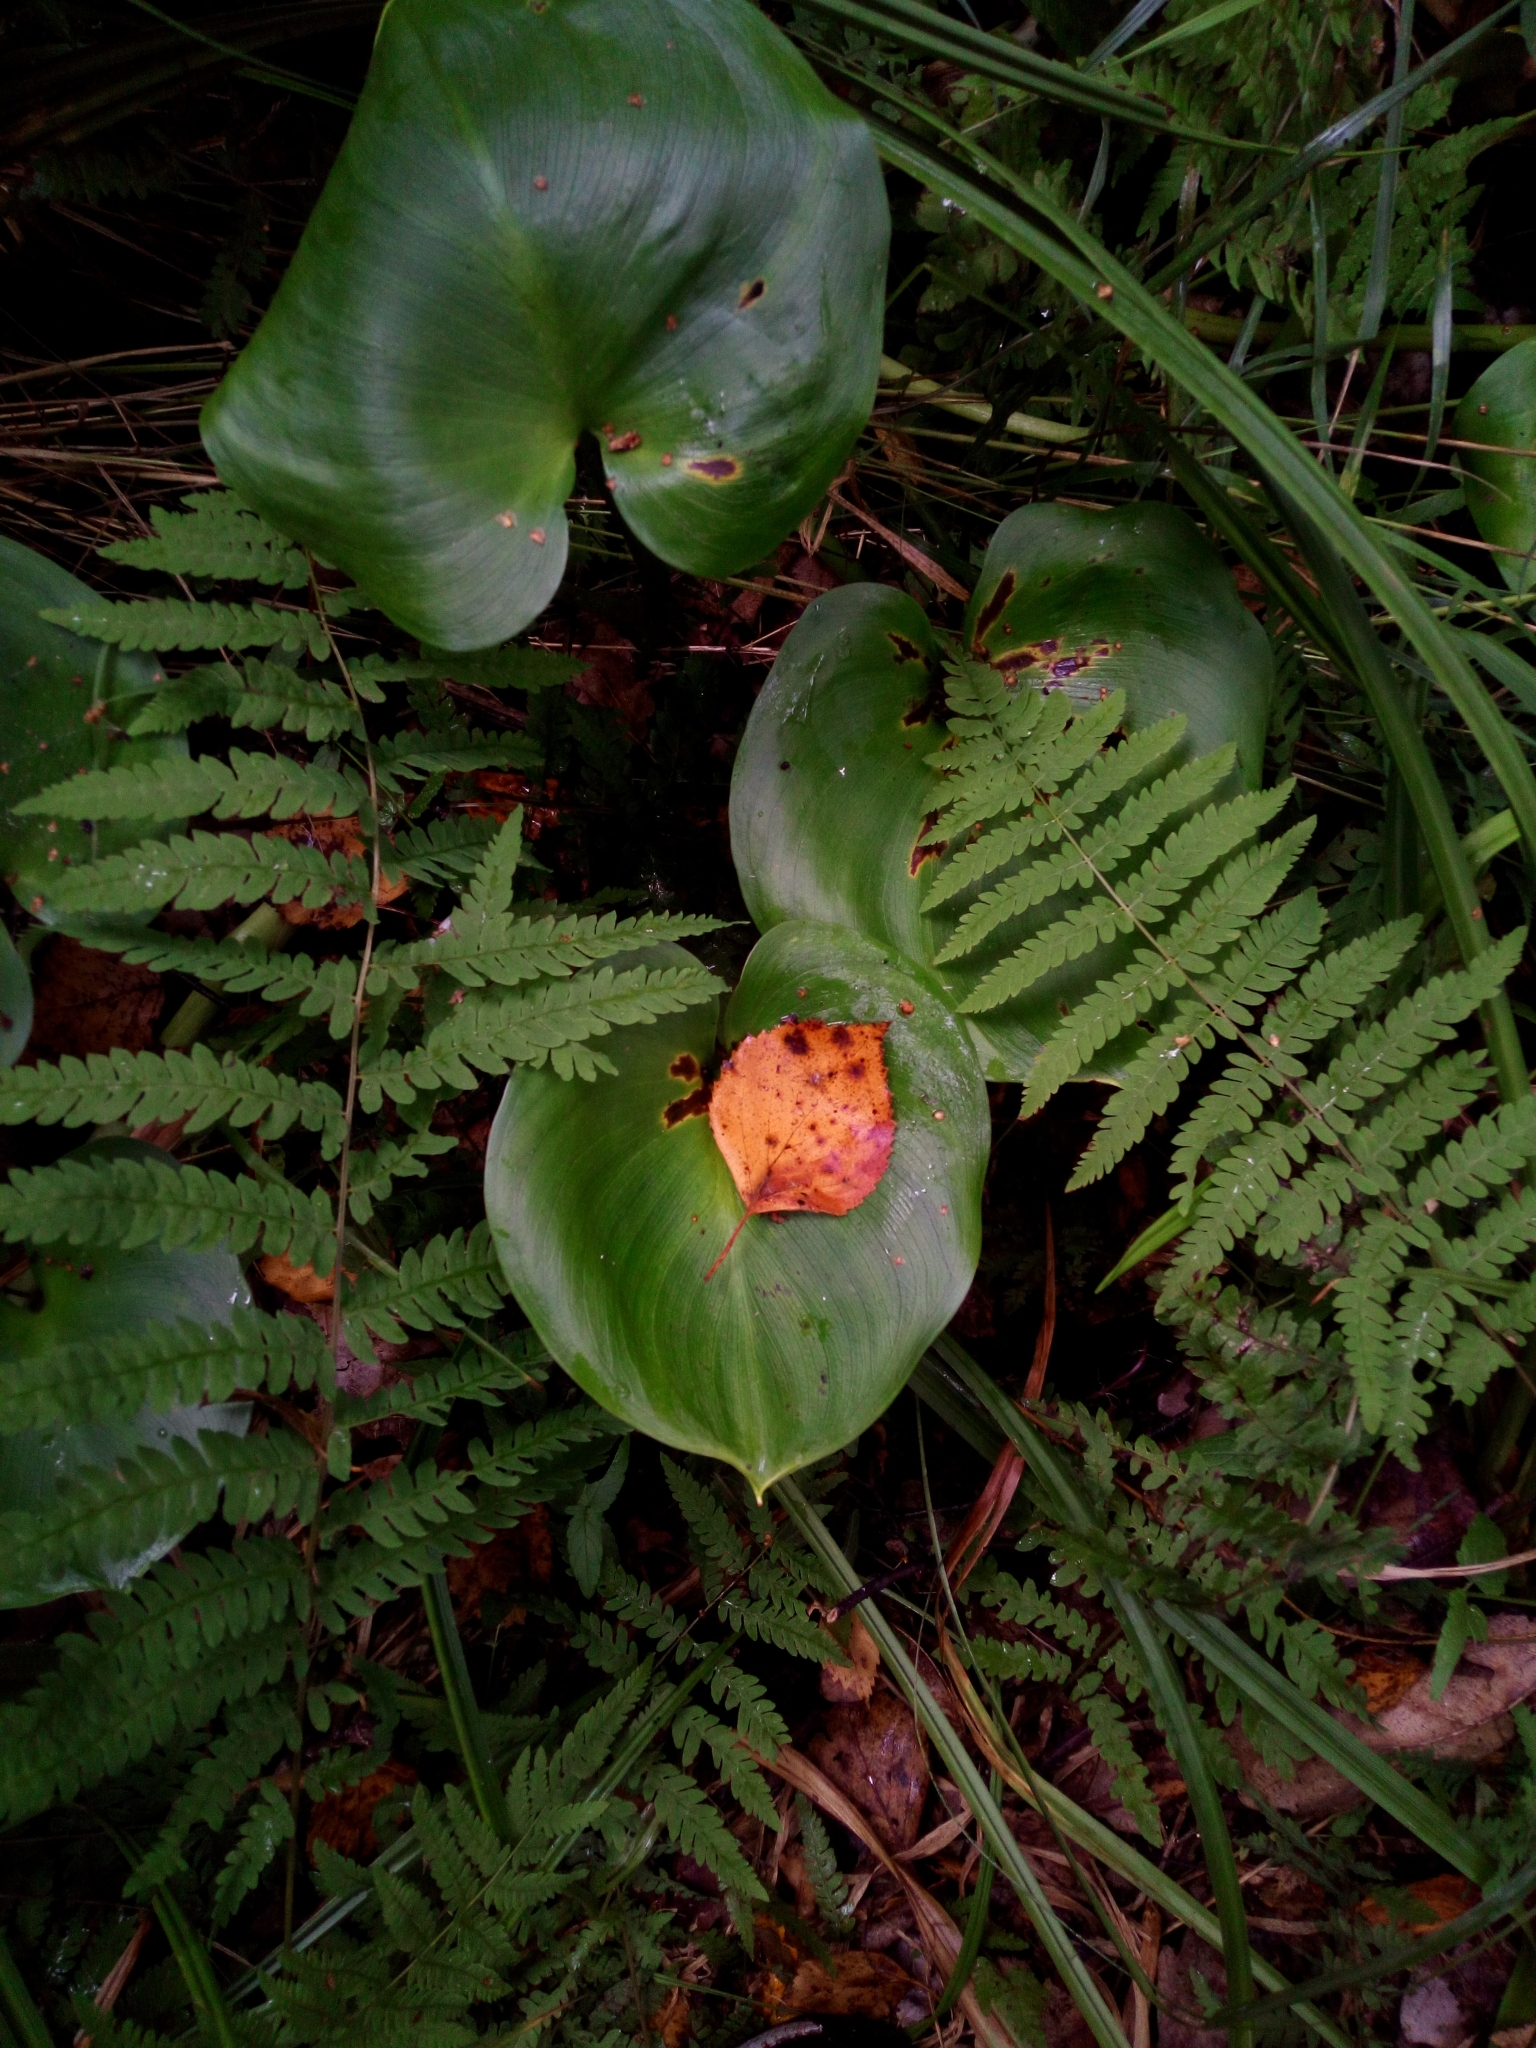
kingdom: Plantae
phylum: Tracheophyta
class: Liliopsida
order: Alismatales
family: Araceae
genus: Calla
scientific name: Calla palustris
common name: Bog arum
